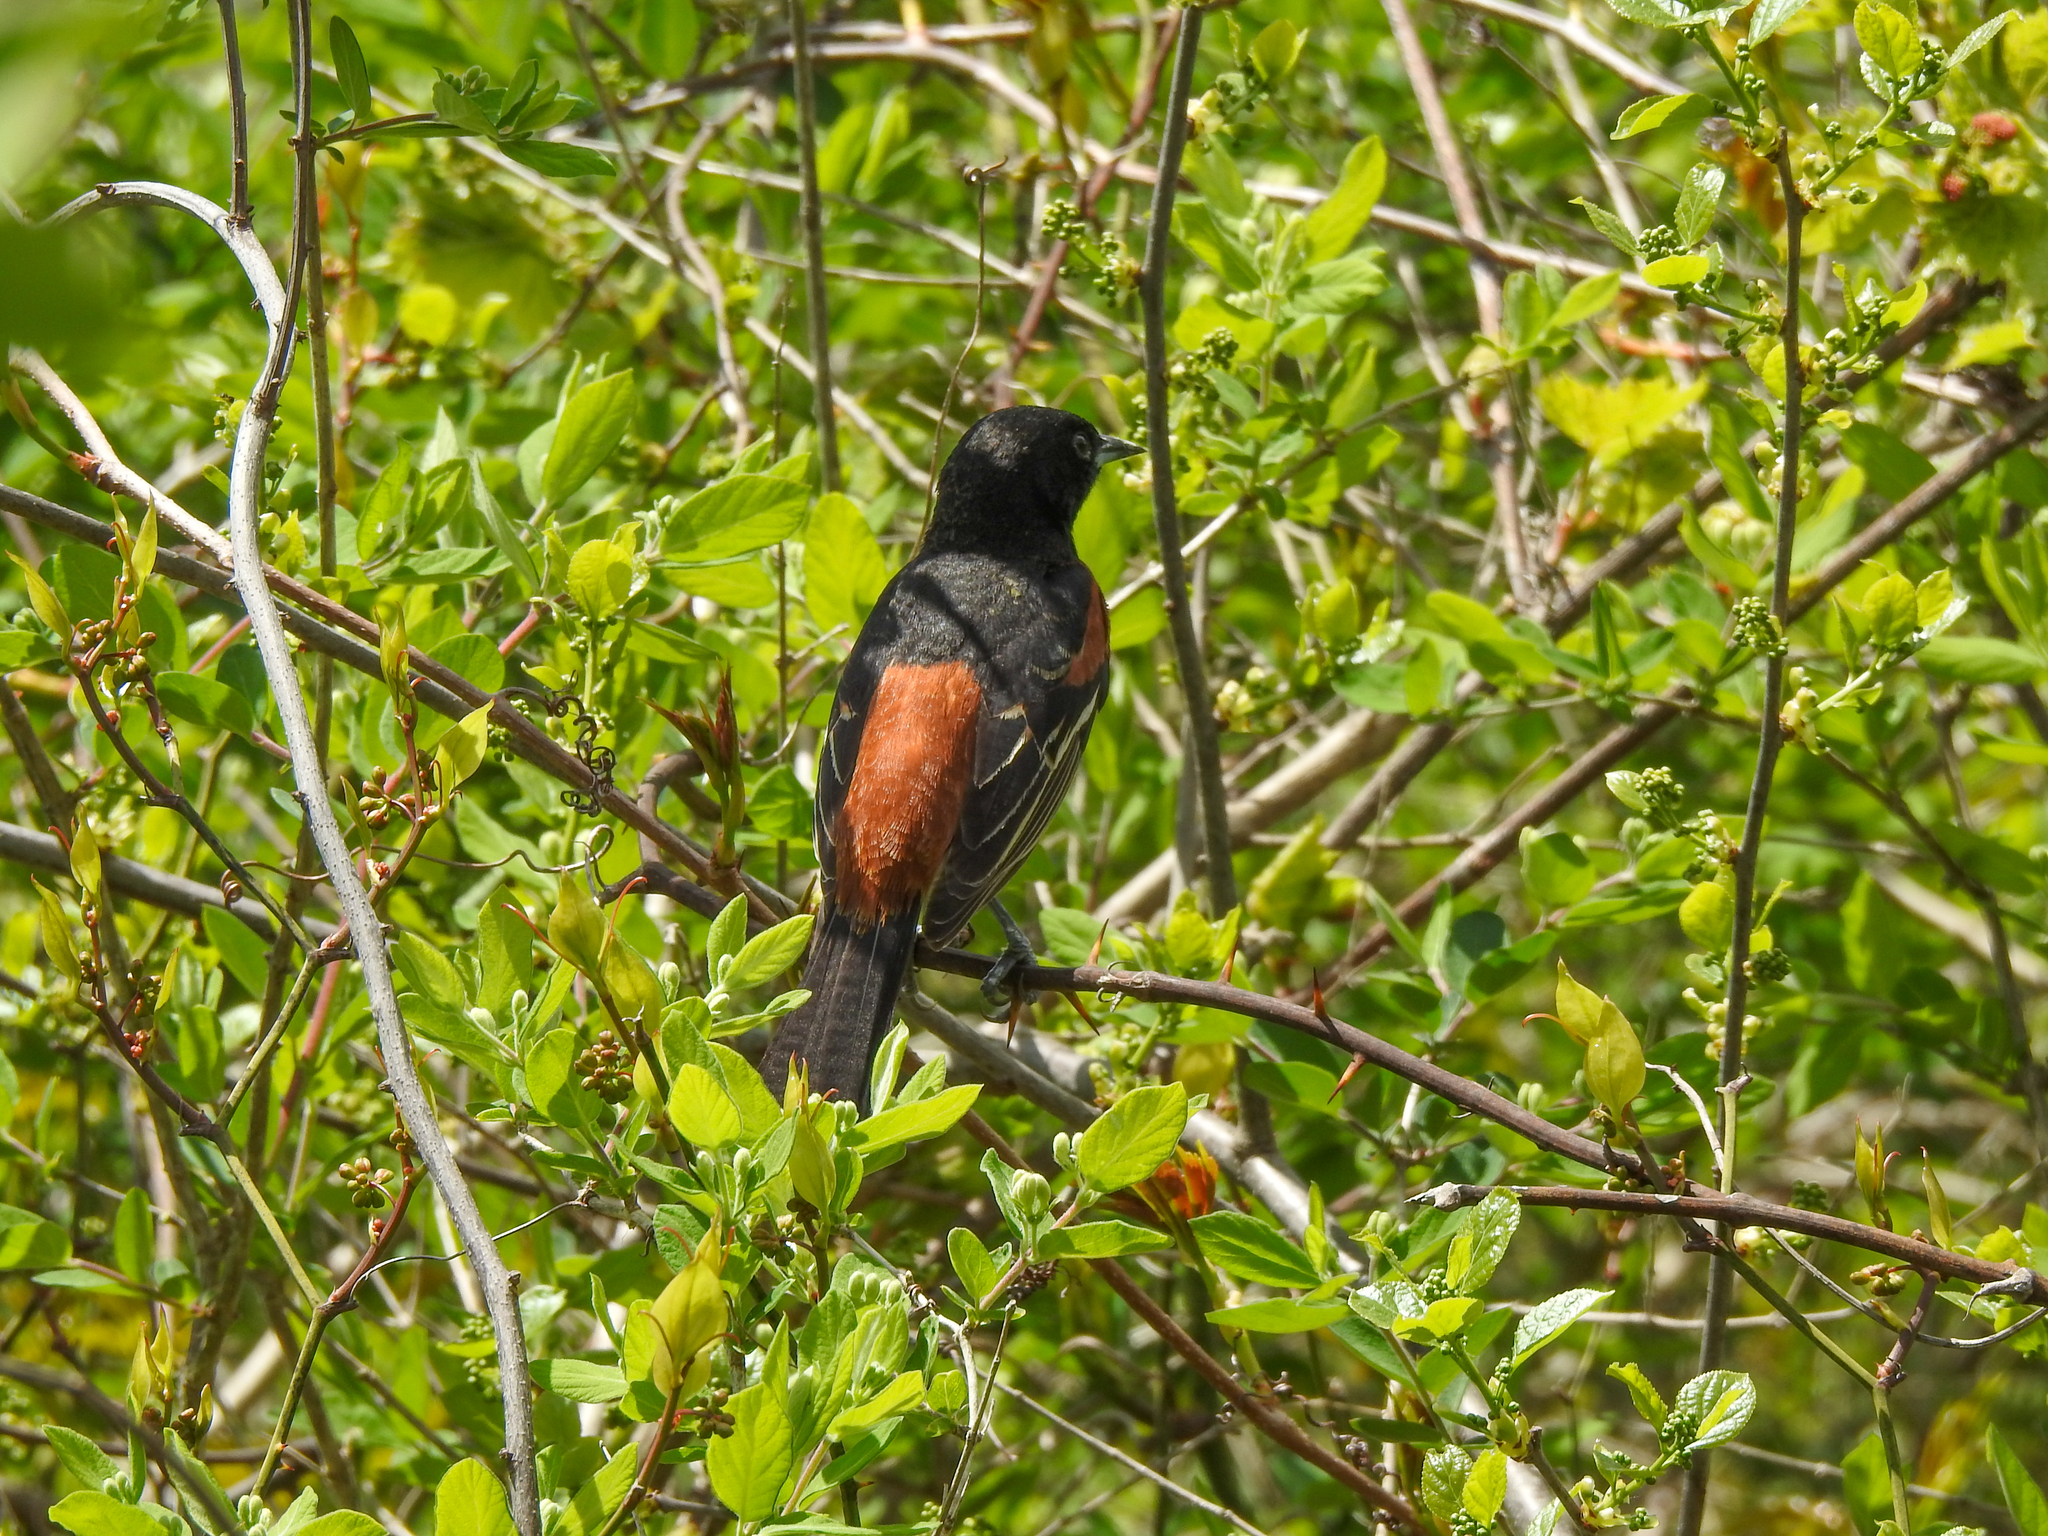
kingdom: Animalia
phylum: Chordata
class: Aves
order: Passeriformes
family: Icteridae
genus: Icterus
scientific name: Icterus spurius
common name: Orchard oriole
